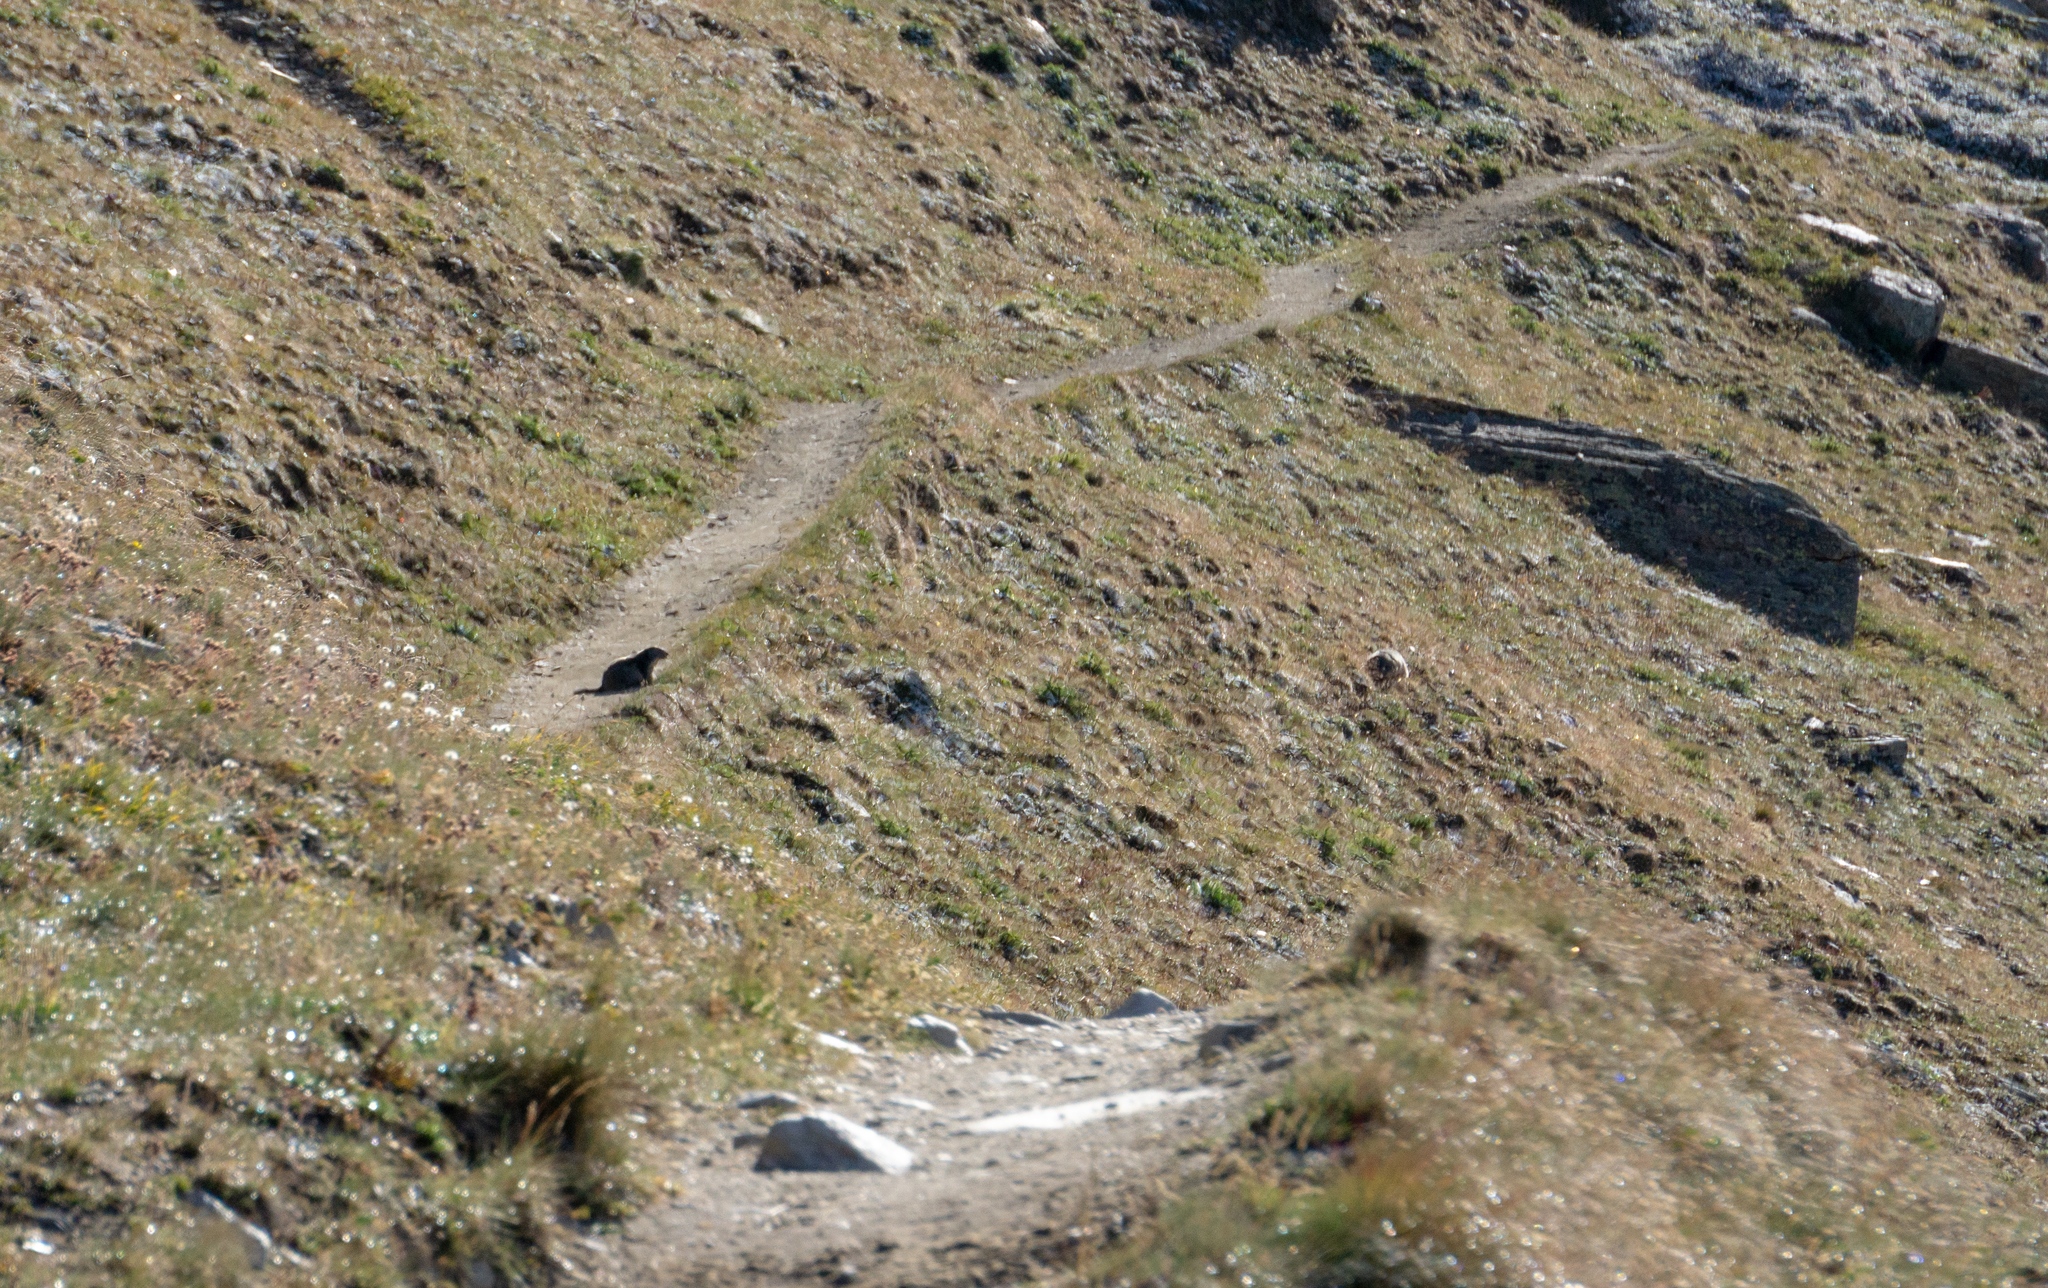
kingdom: Animalia
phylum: Chordata
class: Mammalia
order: Rodentia
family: Sciuridae
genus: Marmota
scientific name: Marmota marmota
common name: Alpine marmot
